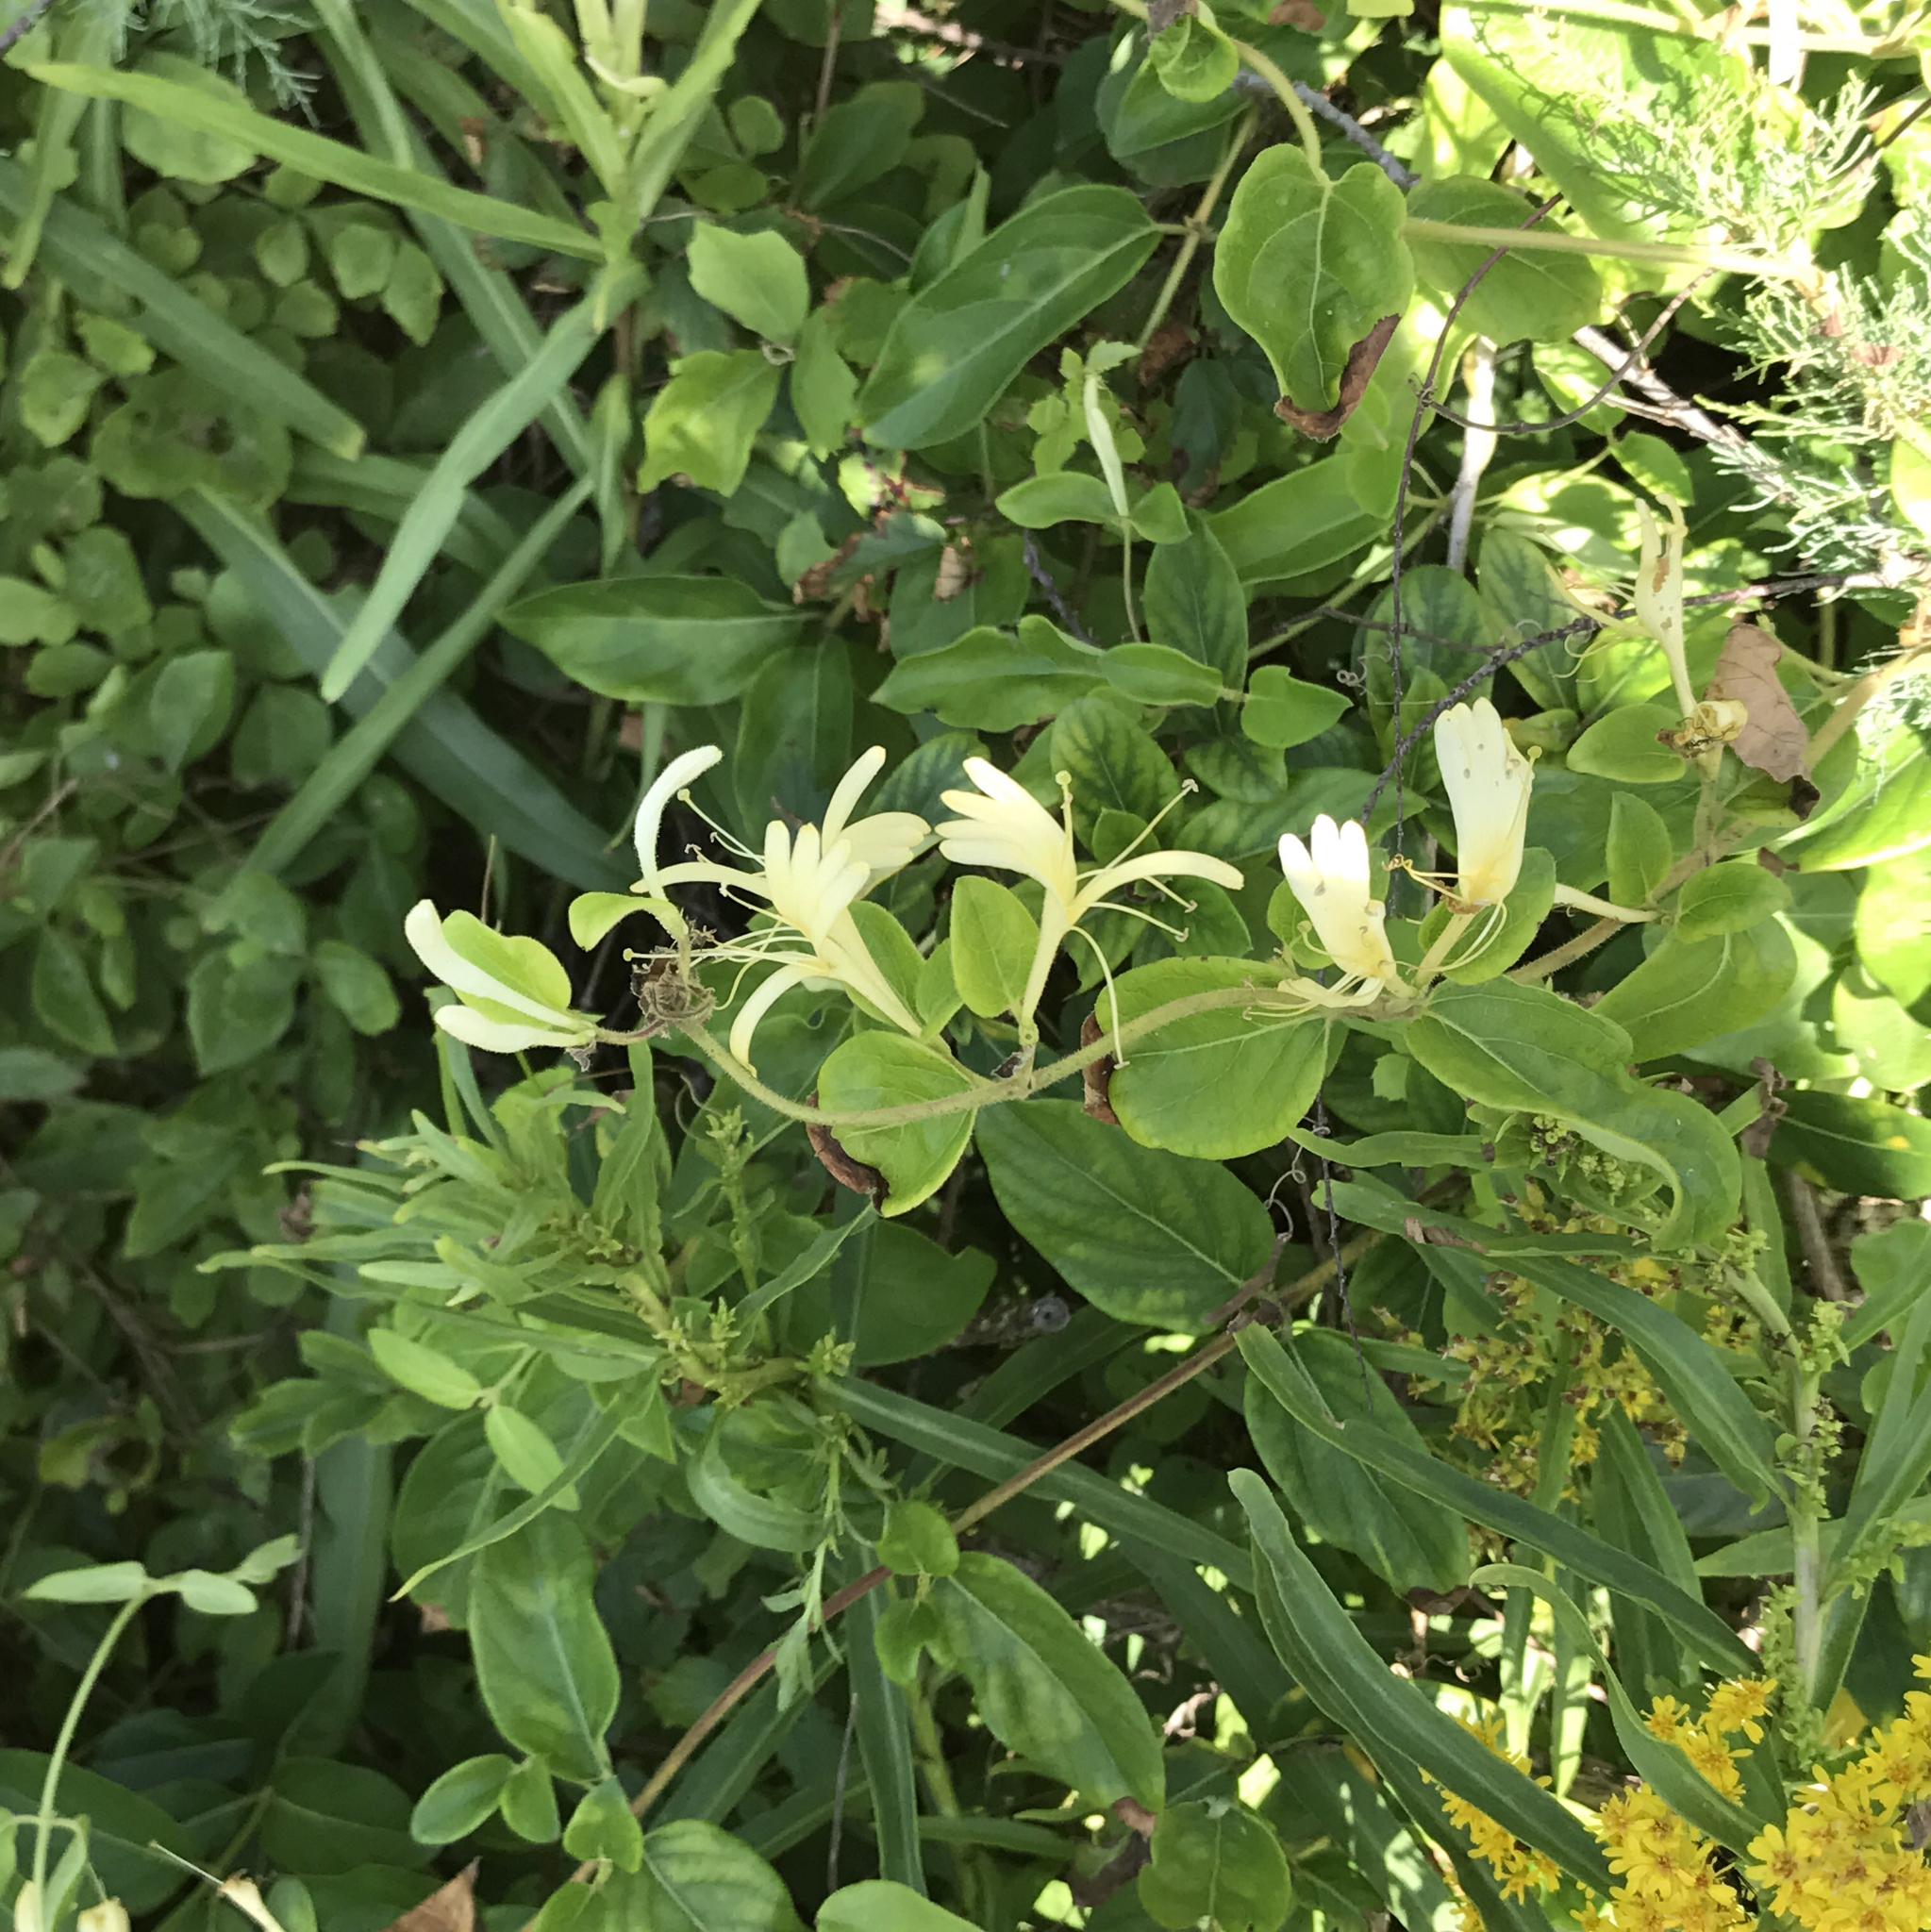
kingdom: Plantae
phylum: Tracheophyta
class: Magnoliopsida
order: Dipsacales
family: Caprifoliaceae
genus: Lonicera
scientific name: Lonicera japonica
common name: Japanese honeysuckle
